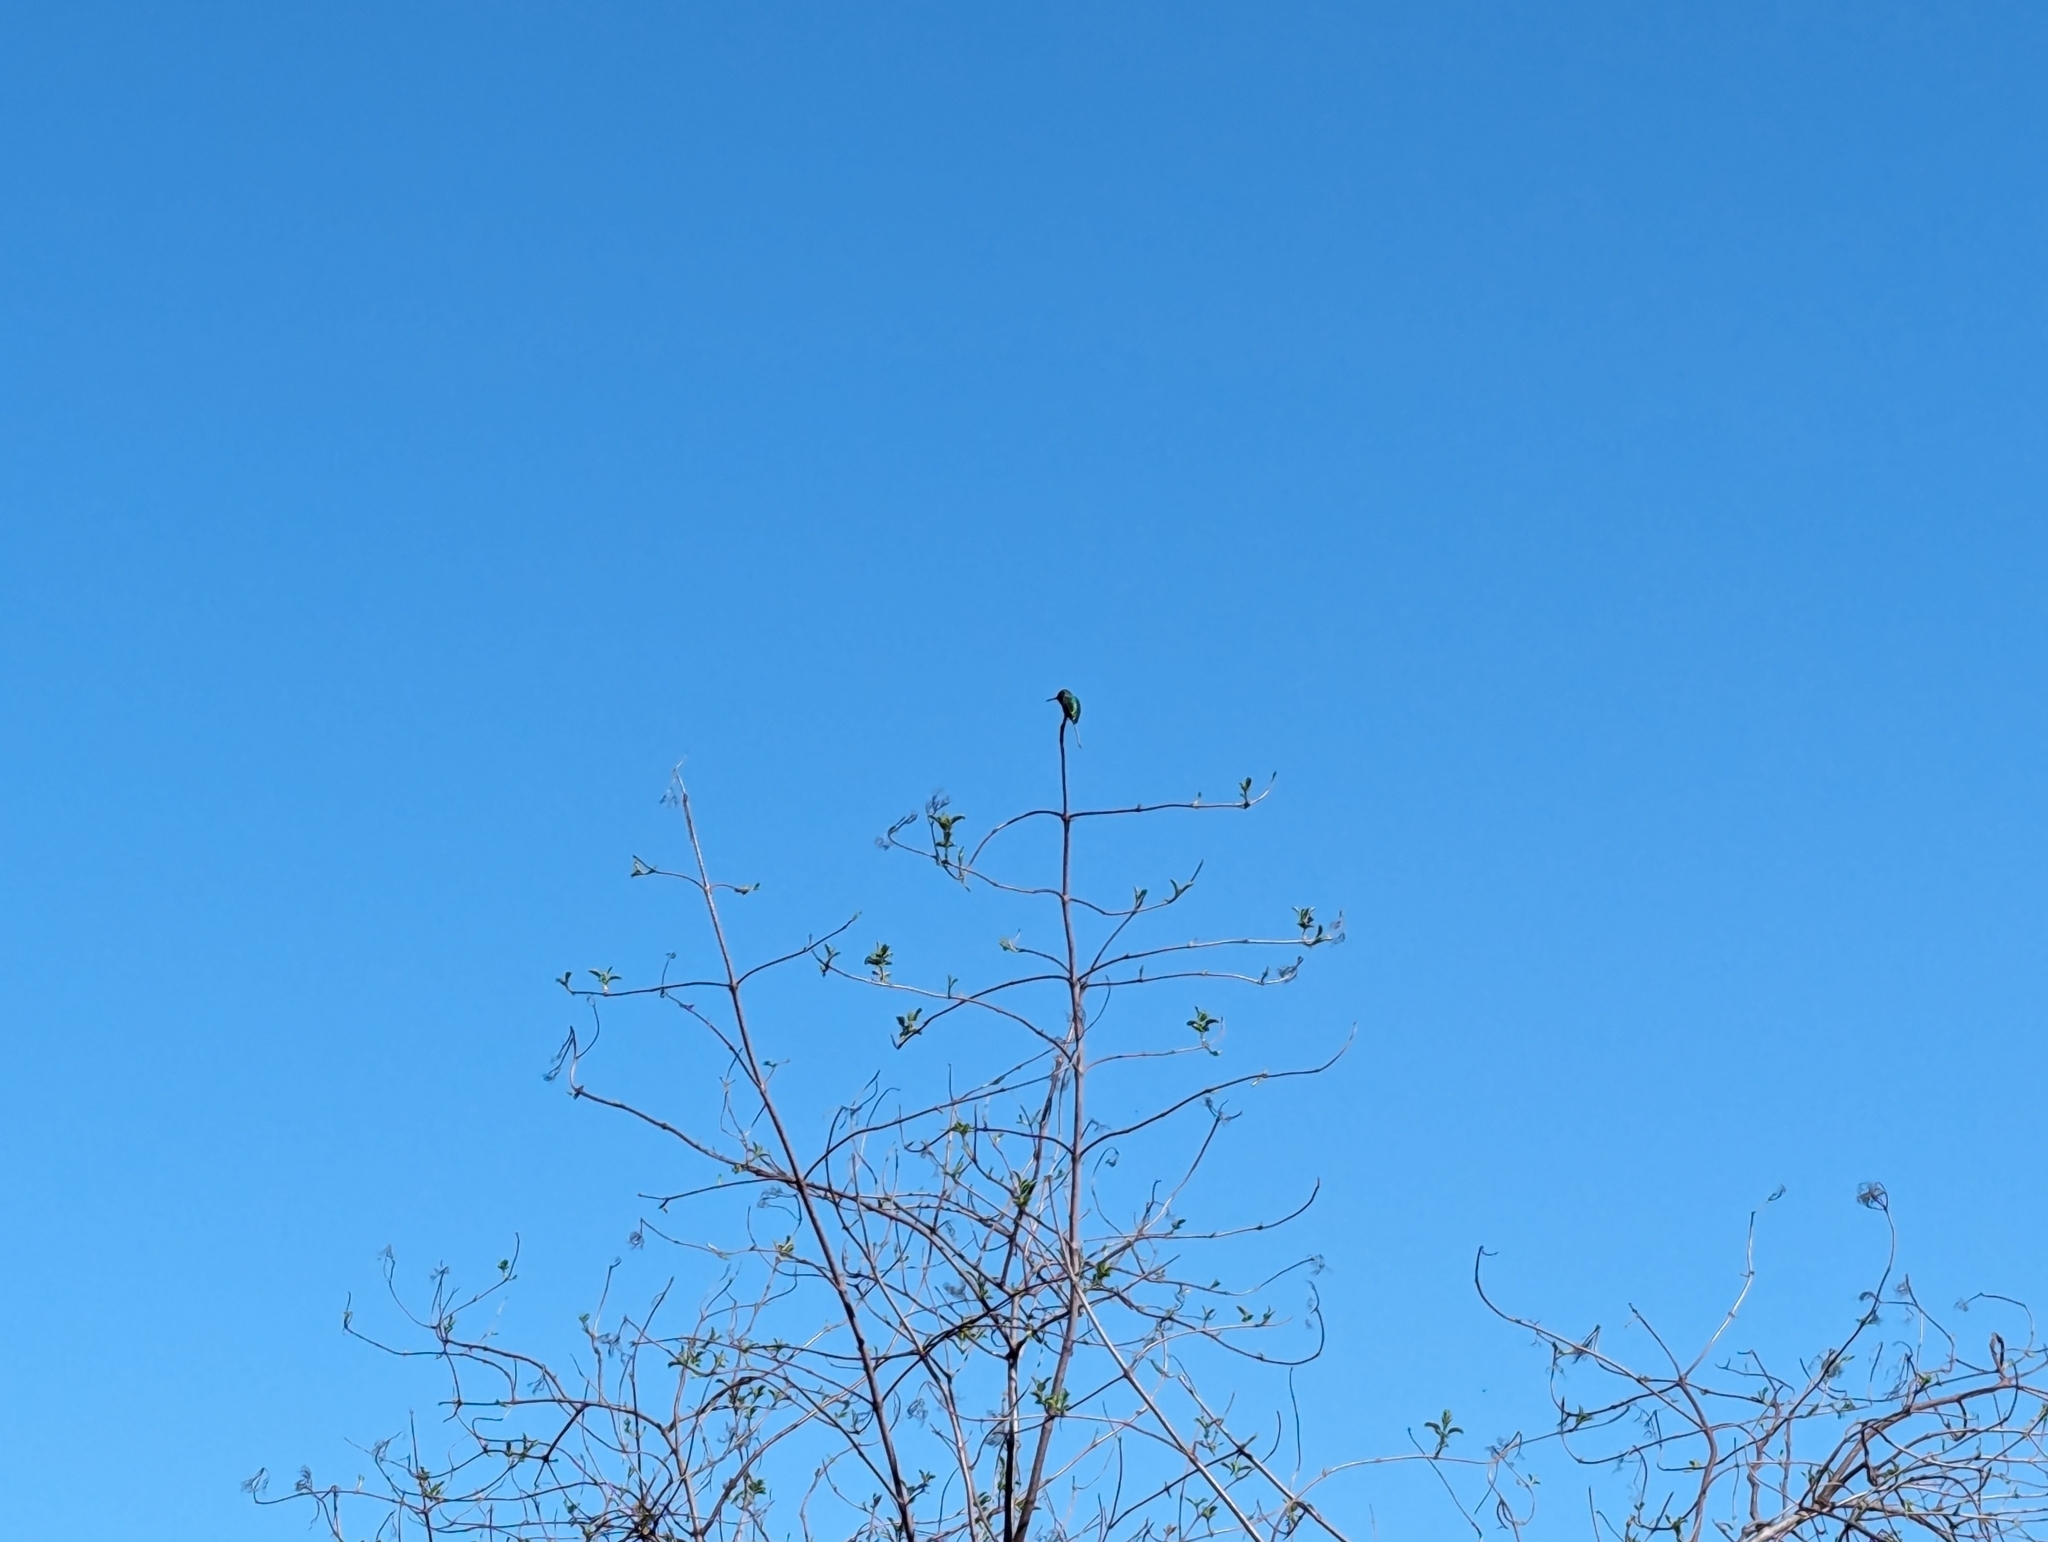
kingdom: Animalia
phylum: Chordata
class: Aves
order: Apodiformes
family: Trochilidae
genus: Calypte
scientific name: Calypte anna
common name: Anna's hummingbird
